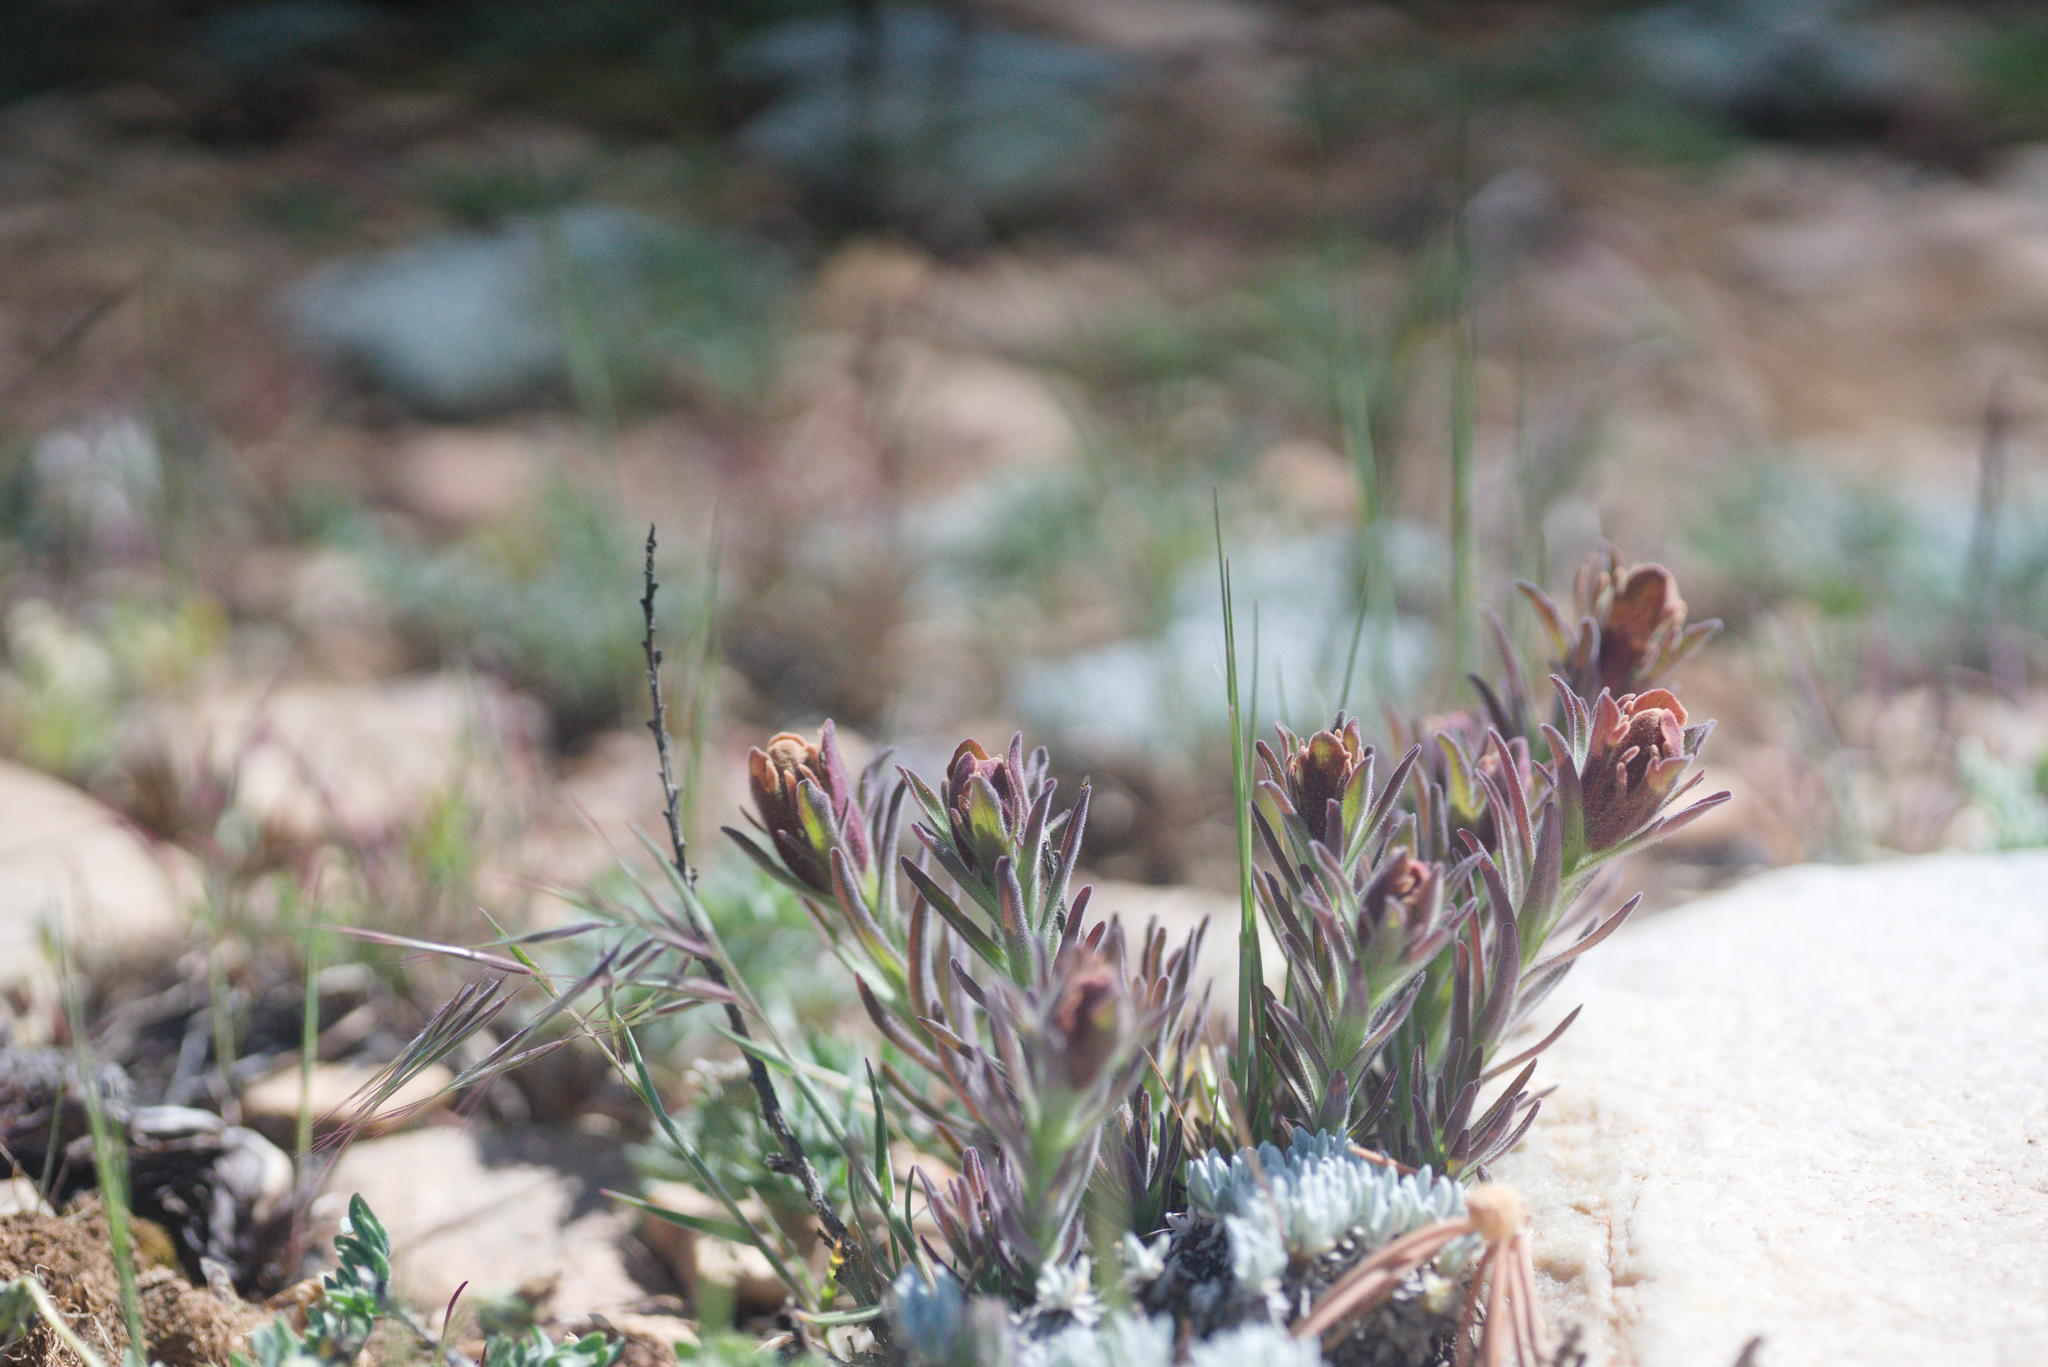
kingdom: Plantae
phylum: Tracheophyta
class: Magnoliopsida
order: Lamiales
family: Orobanchaceae
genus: Castilleja
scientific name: Castilleja cinerea
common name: Ash-gray indian paintbrush
